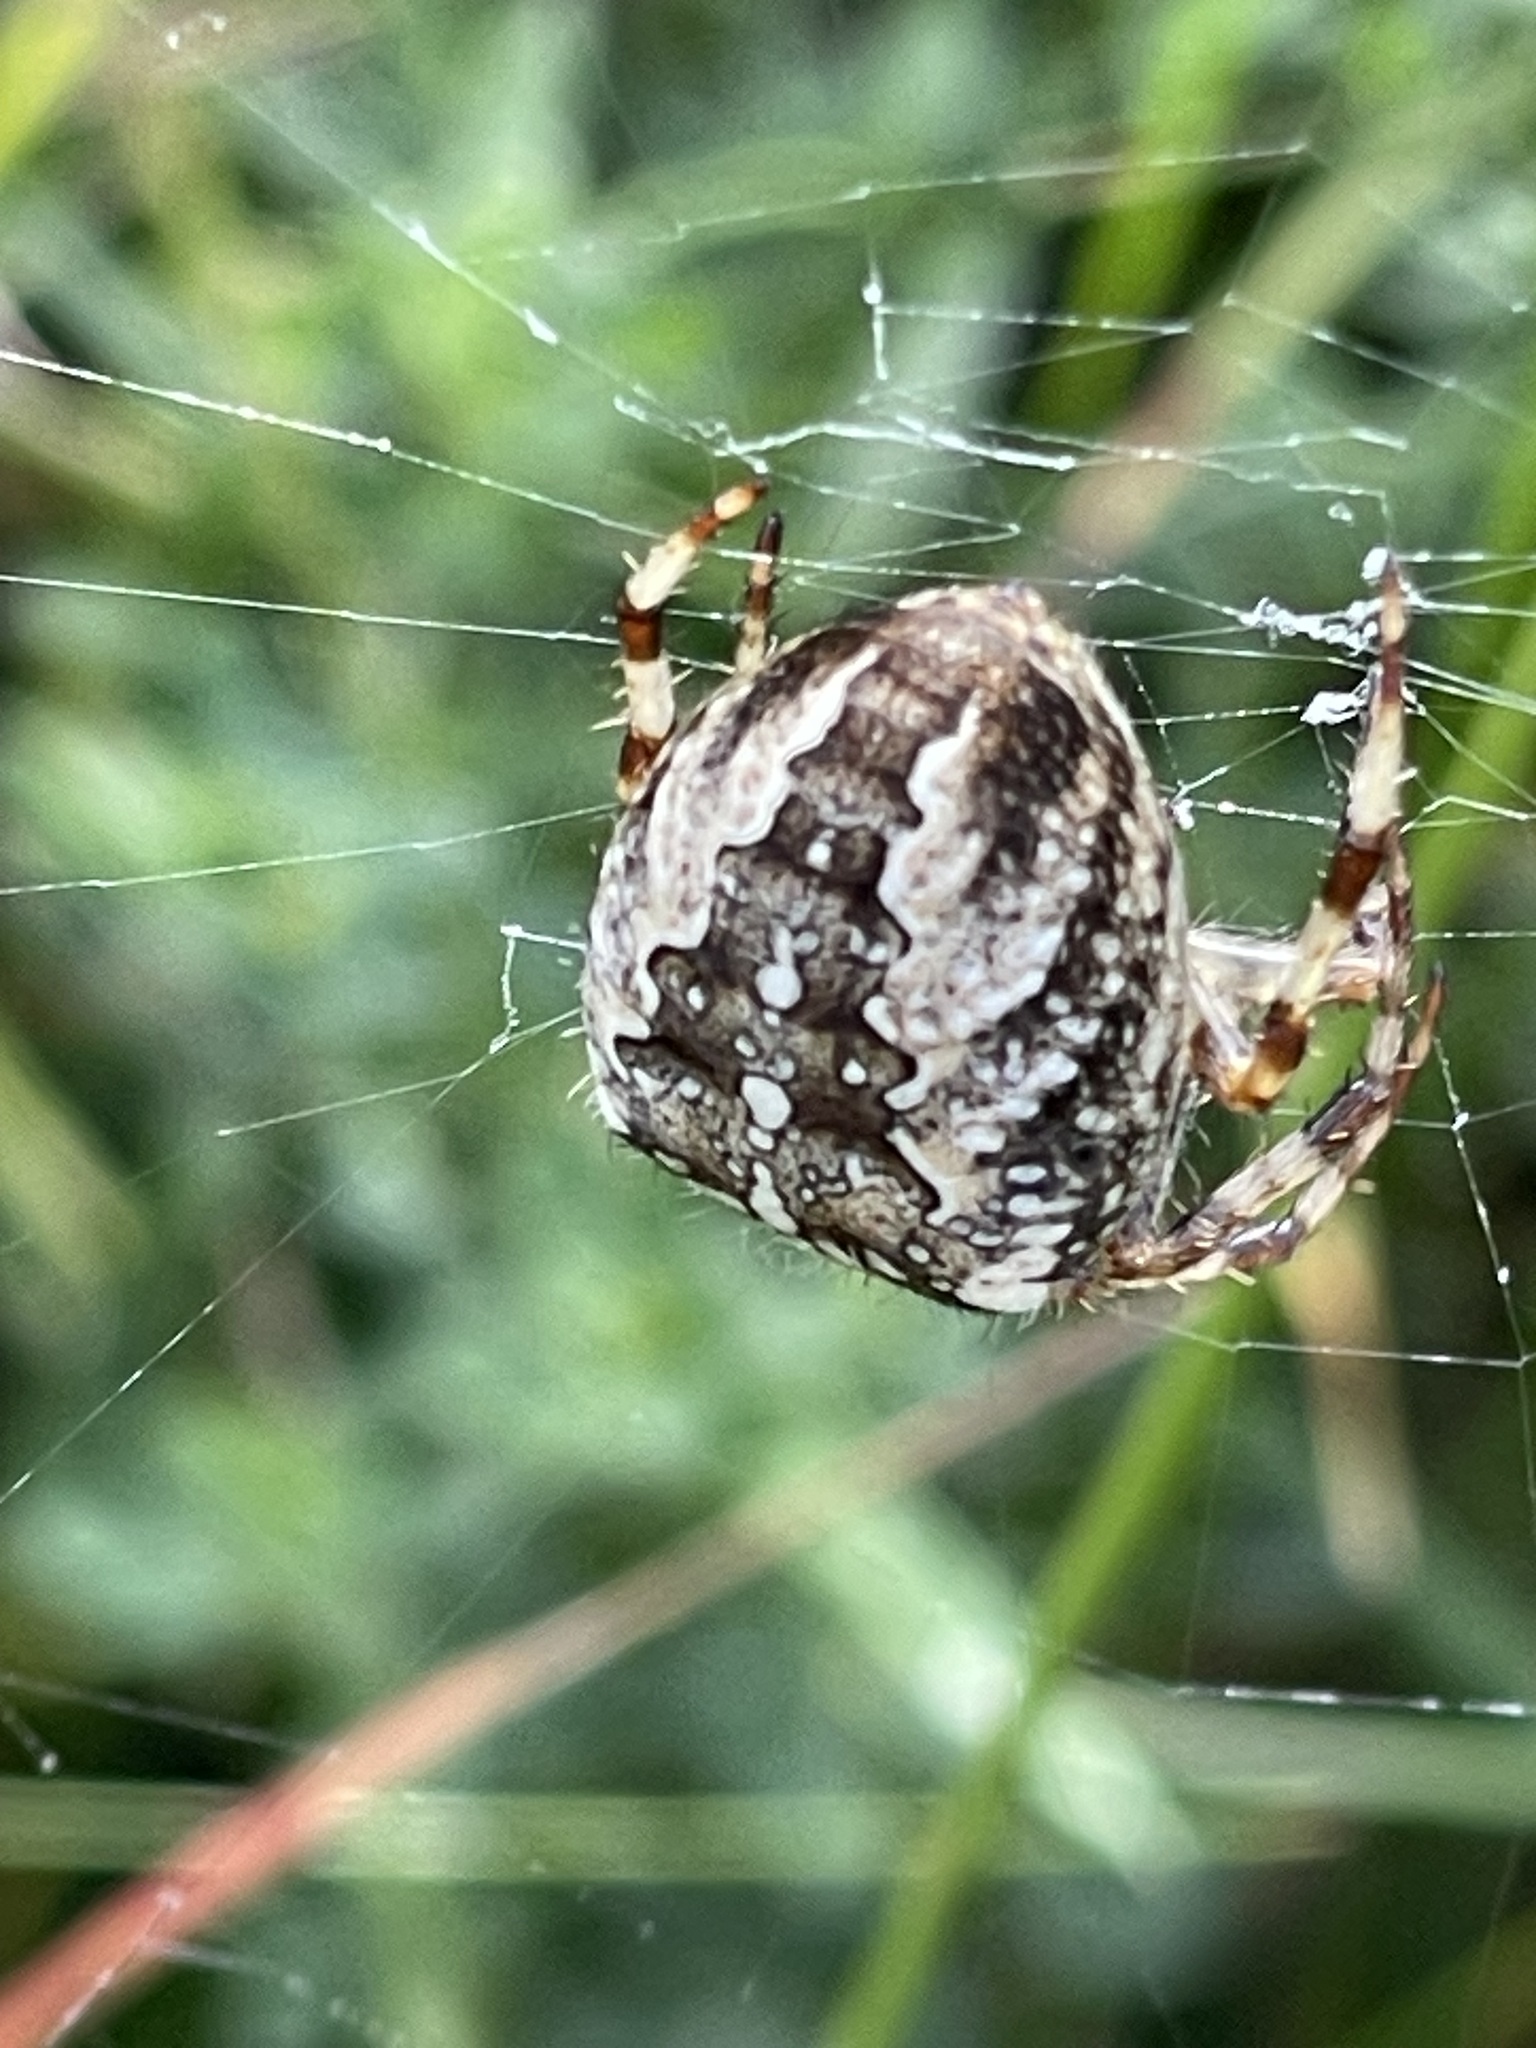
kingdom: Animalia
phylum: Arthropoda
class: Arachnida
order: Araneae
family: Araneidae
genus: Araneus
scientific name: Araneus diadematus
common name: Cross orbweaver
